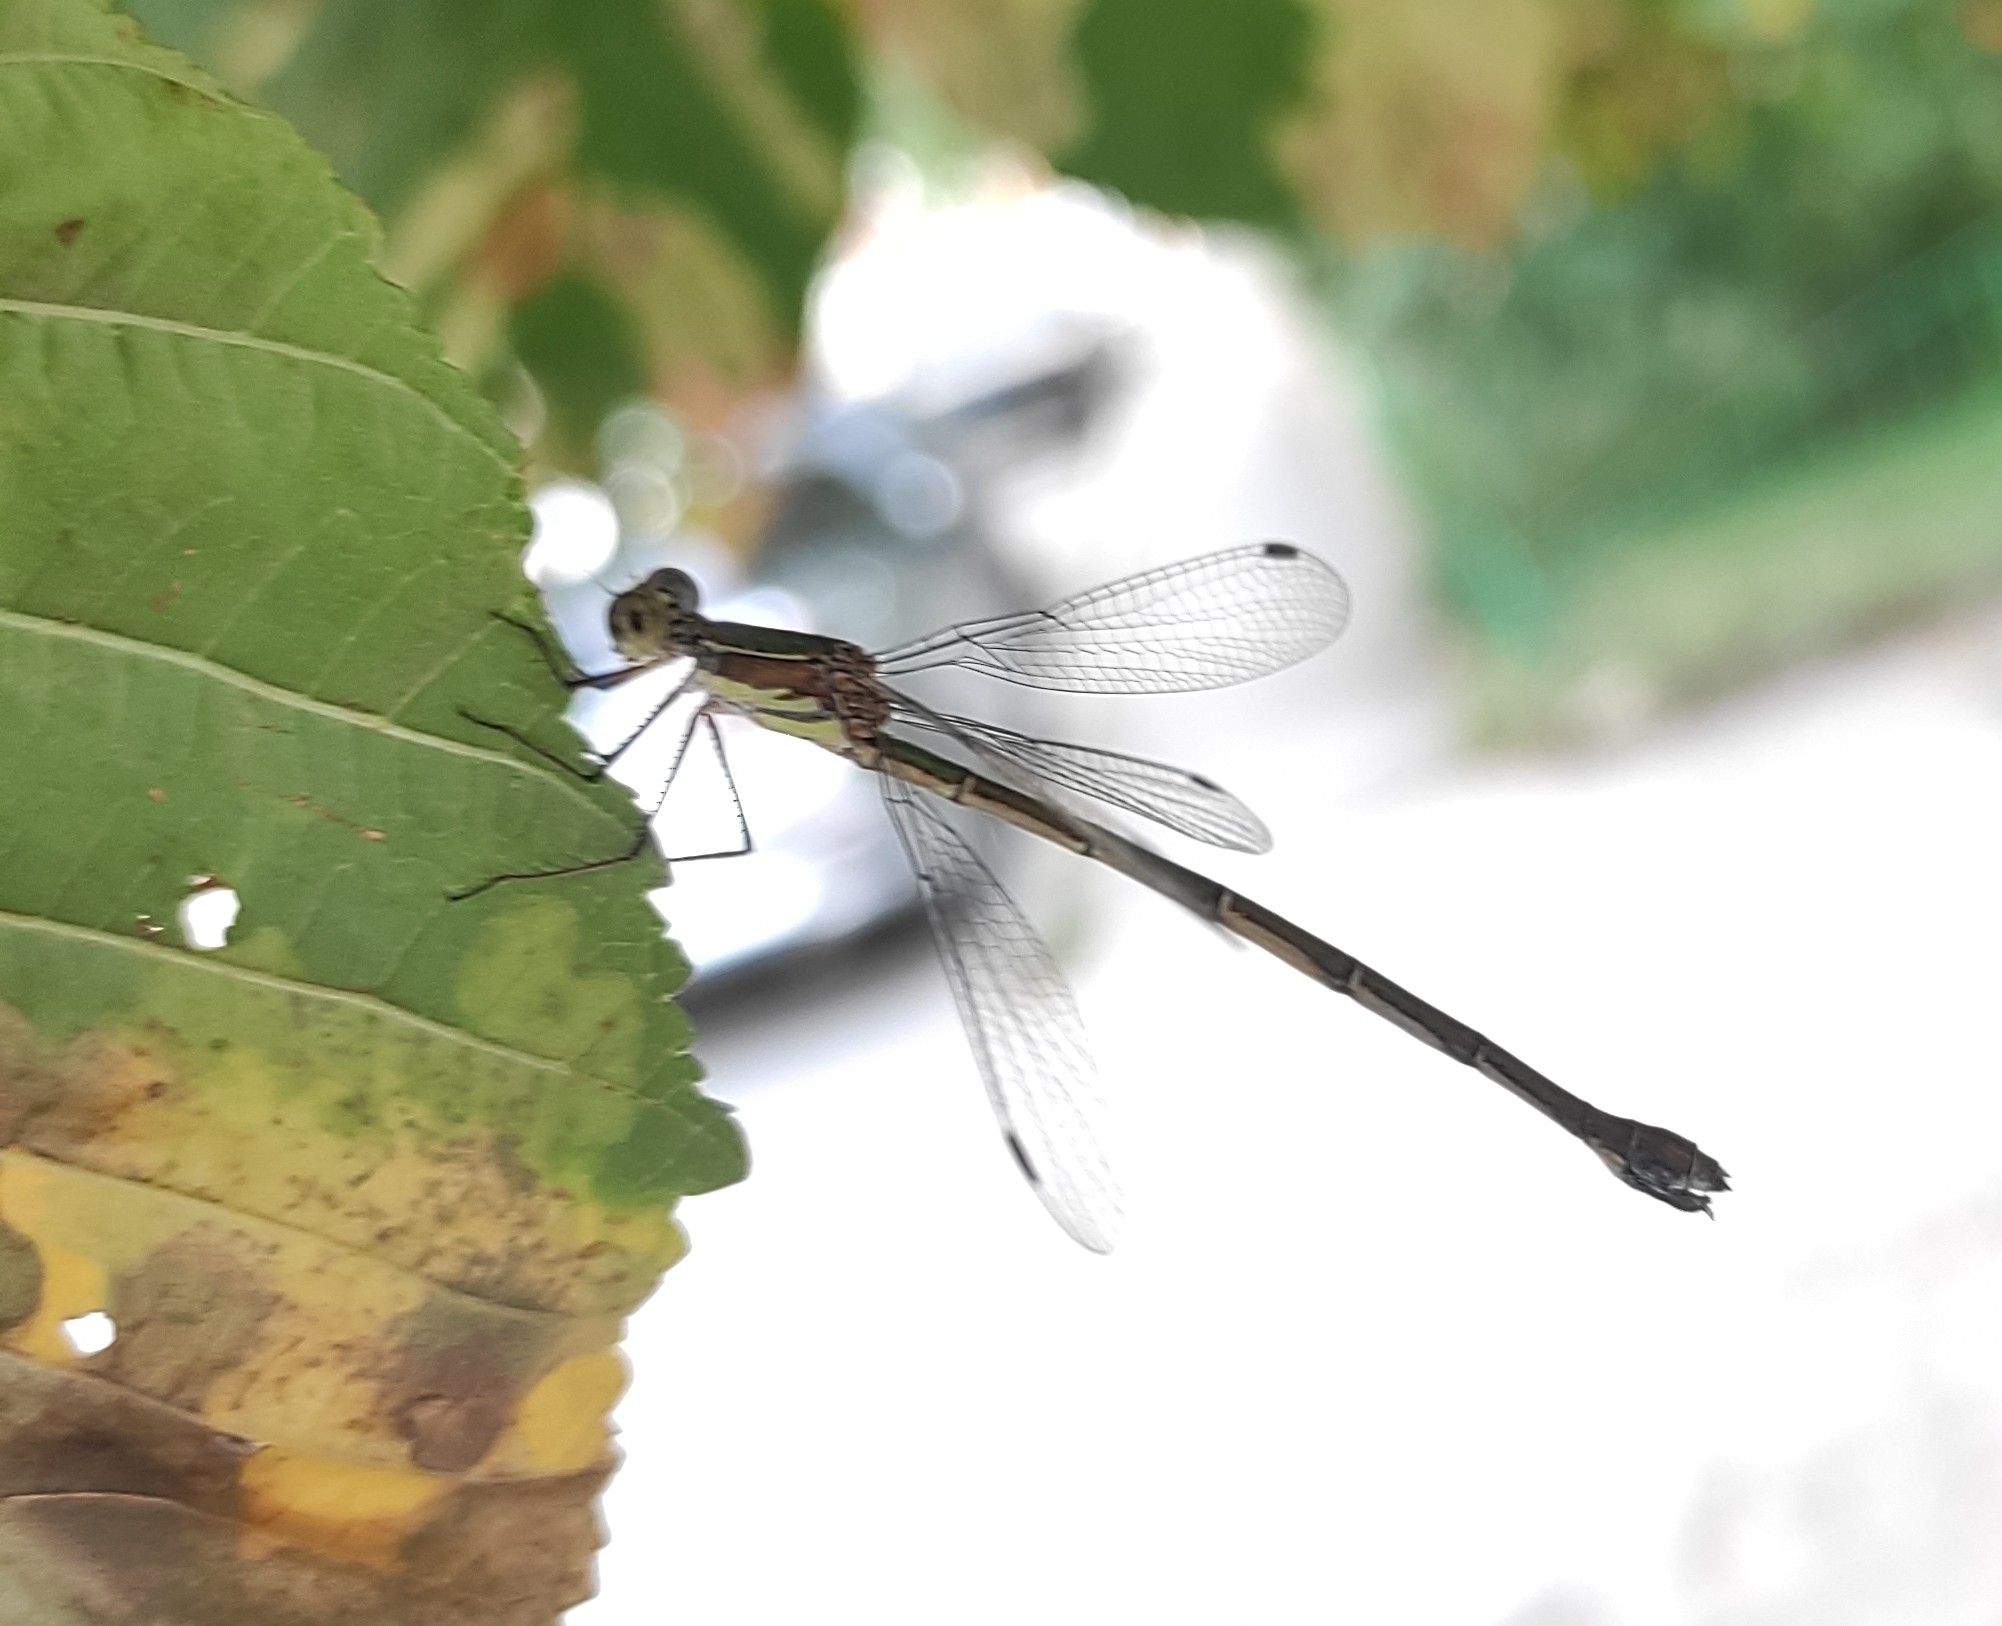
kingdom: Animalia
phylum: Arthropoda
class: Insecta
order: Odonata
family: Lestidae
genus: Chalcolestes
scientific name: Chalcolestes parvidens
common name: Eastern willow spreadwing
